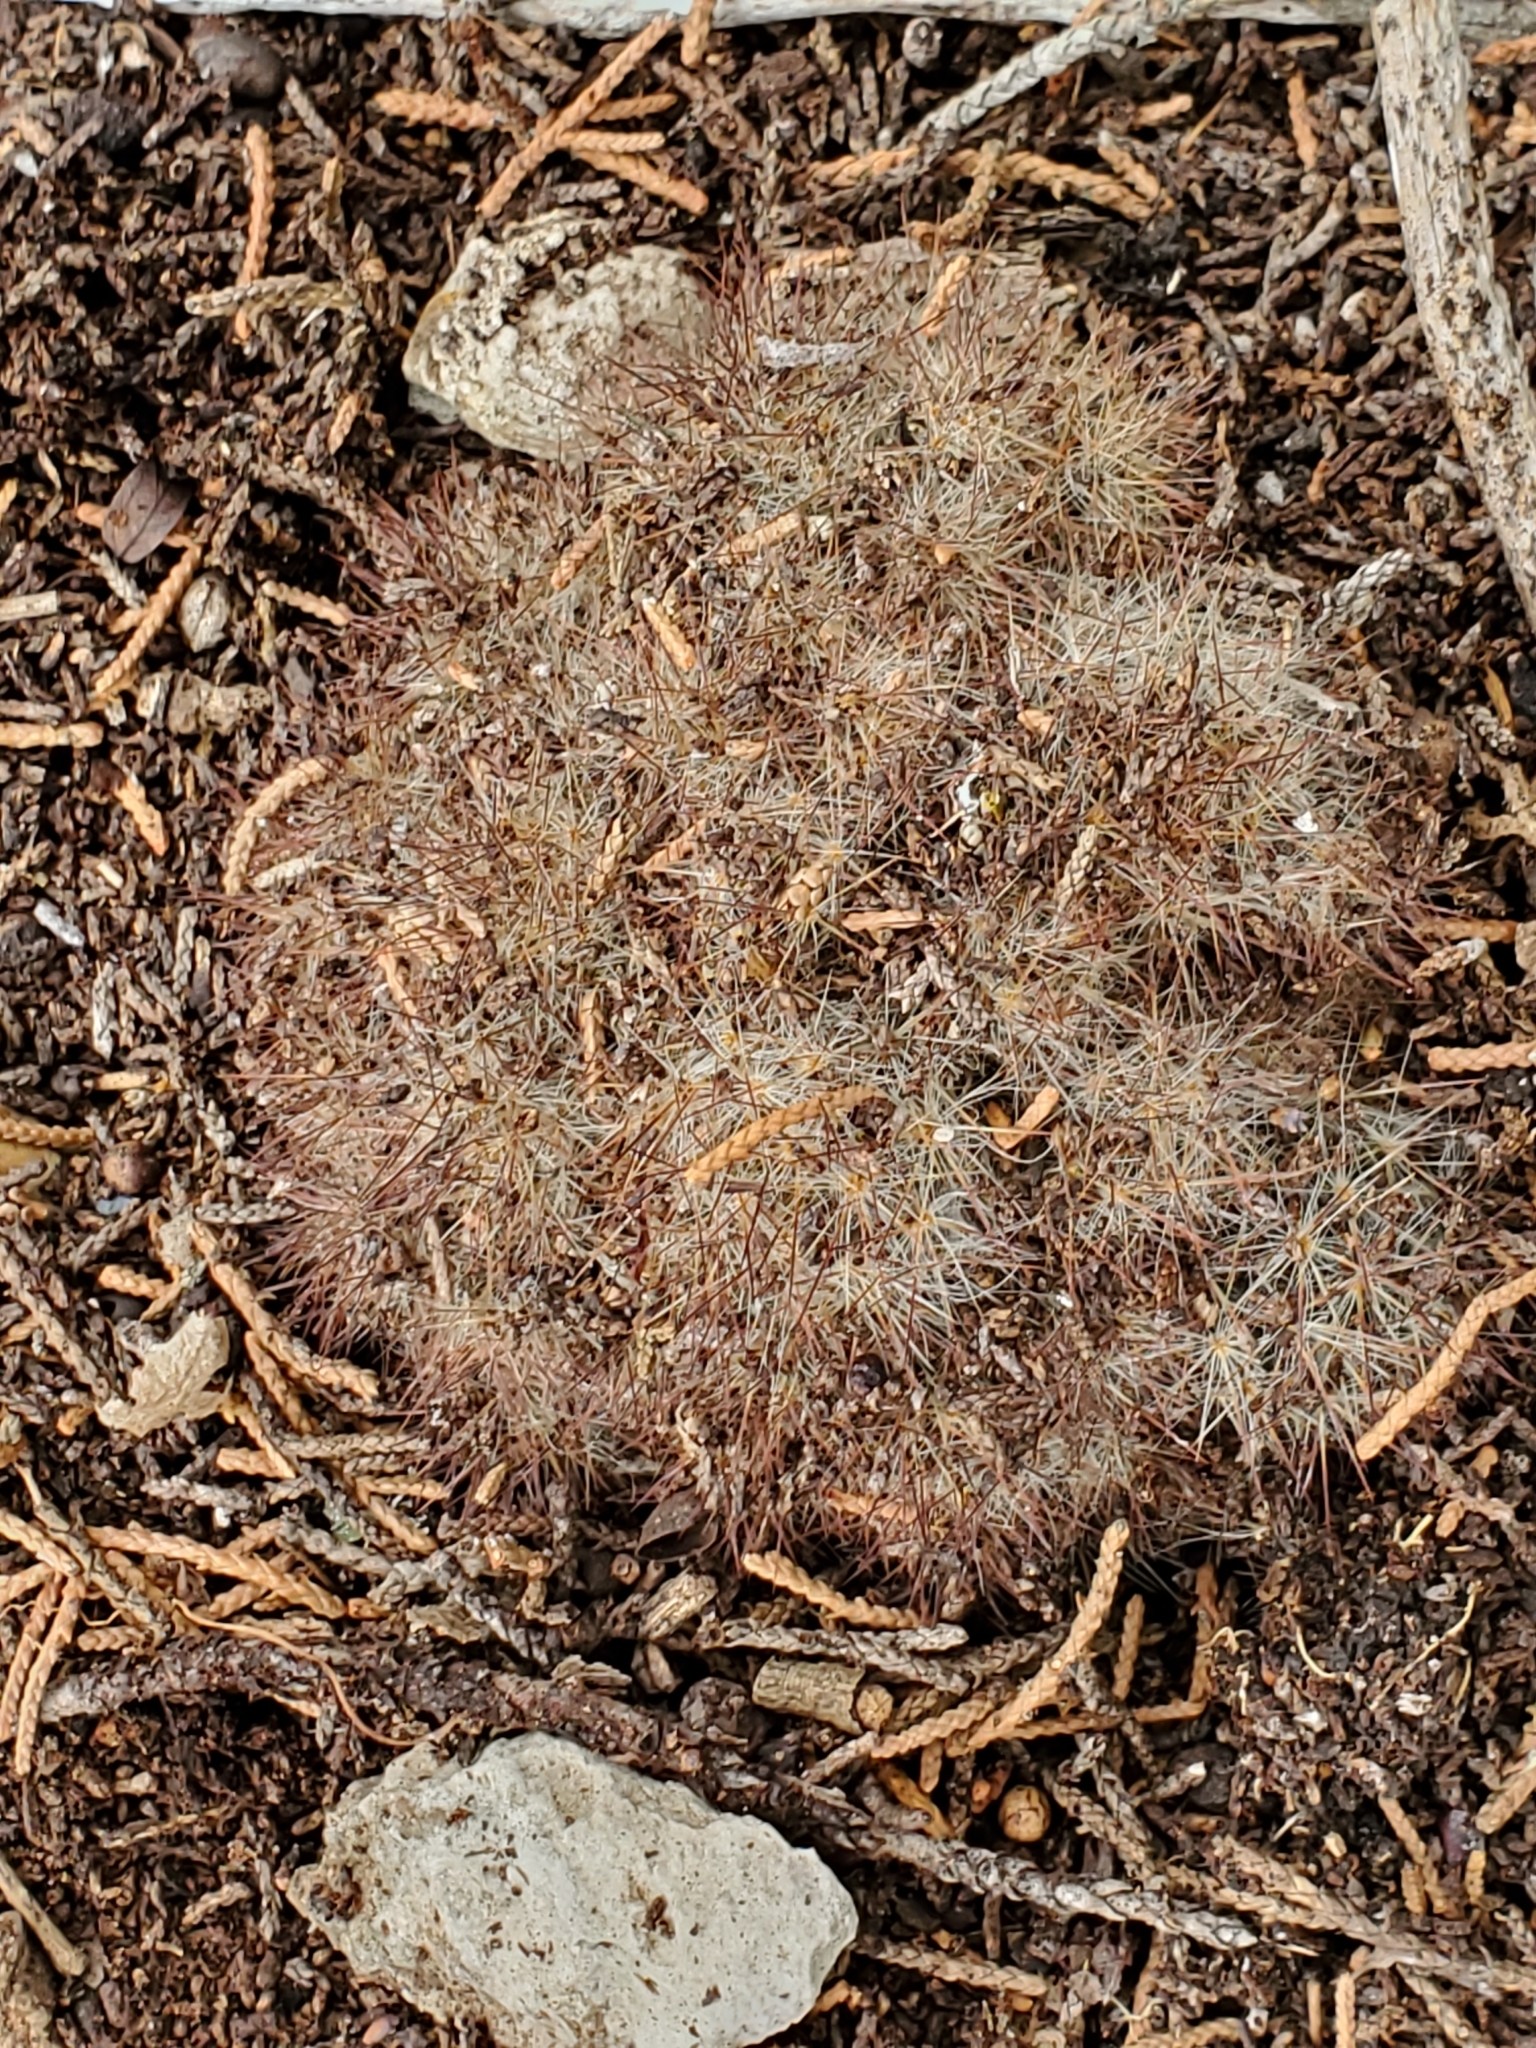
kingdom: Plantae
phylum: Tracheophyta
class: Magnoliopsida
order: Caryophyllales
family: Cactaceae
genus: Mammillaria
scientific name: Mammillaria prolifera
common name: Texas nipple cactus
